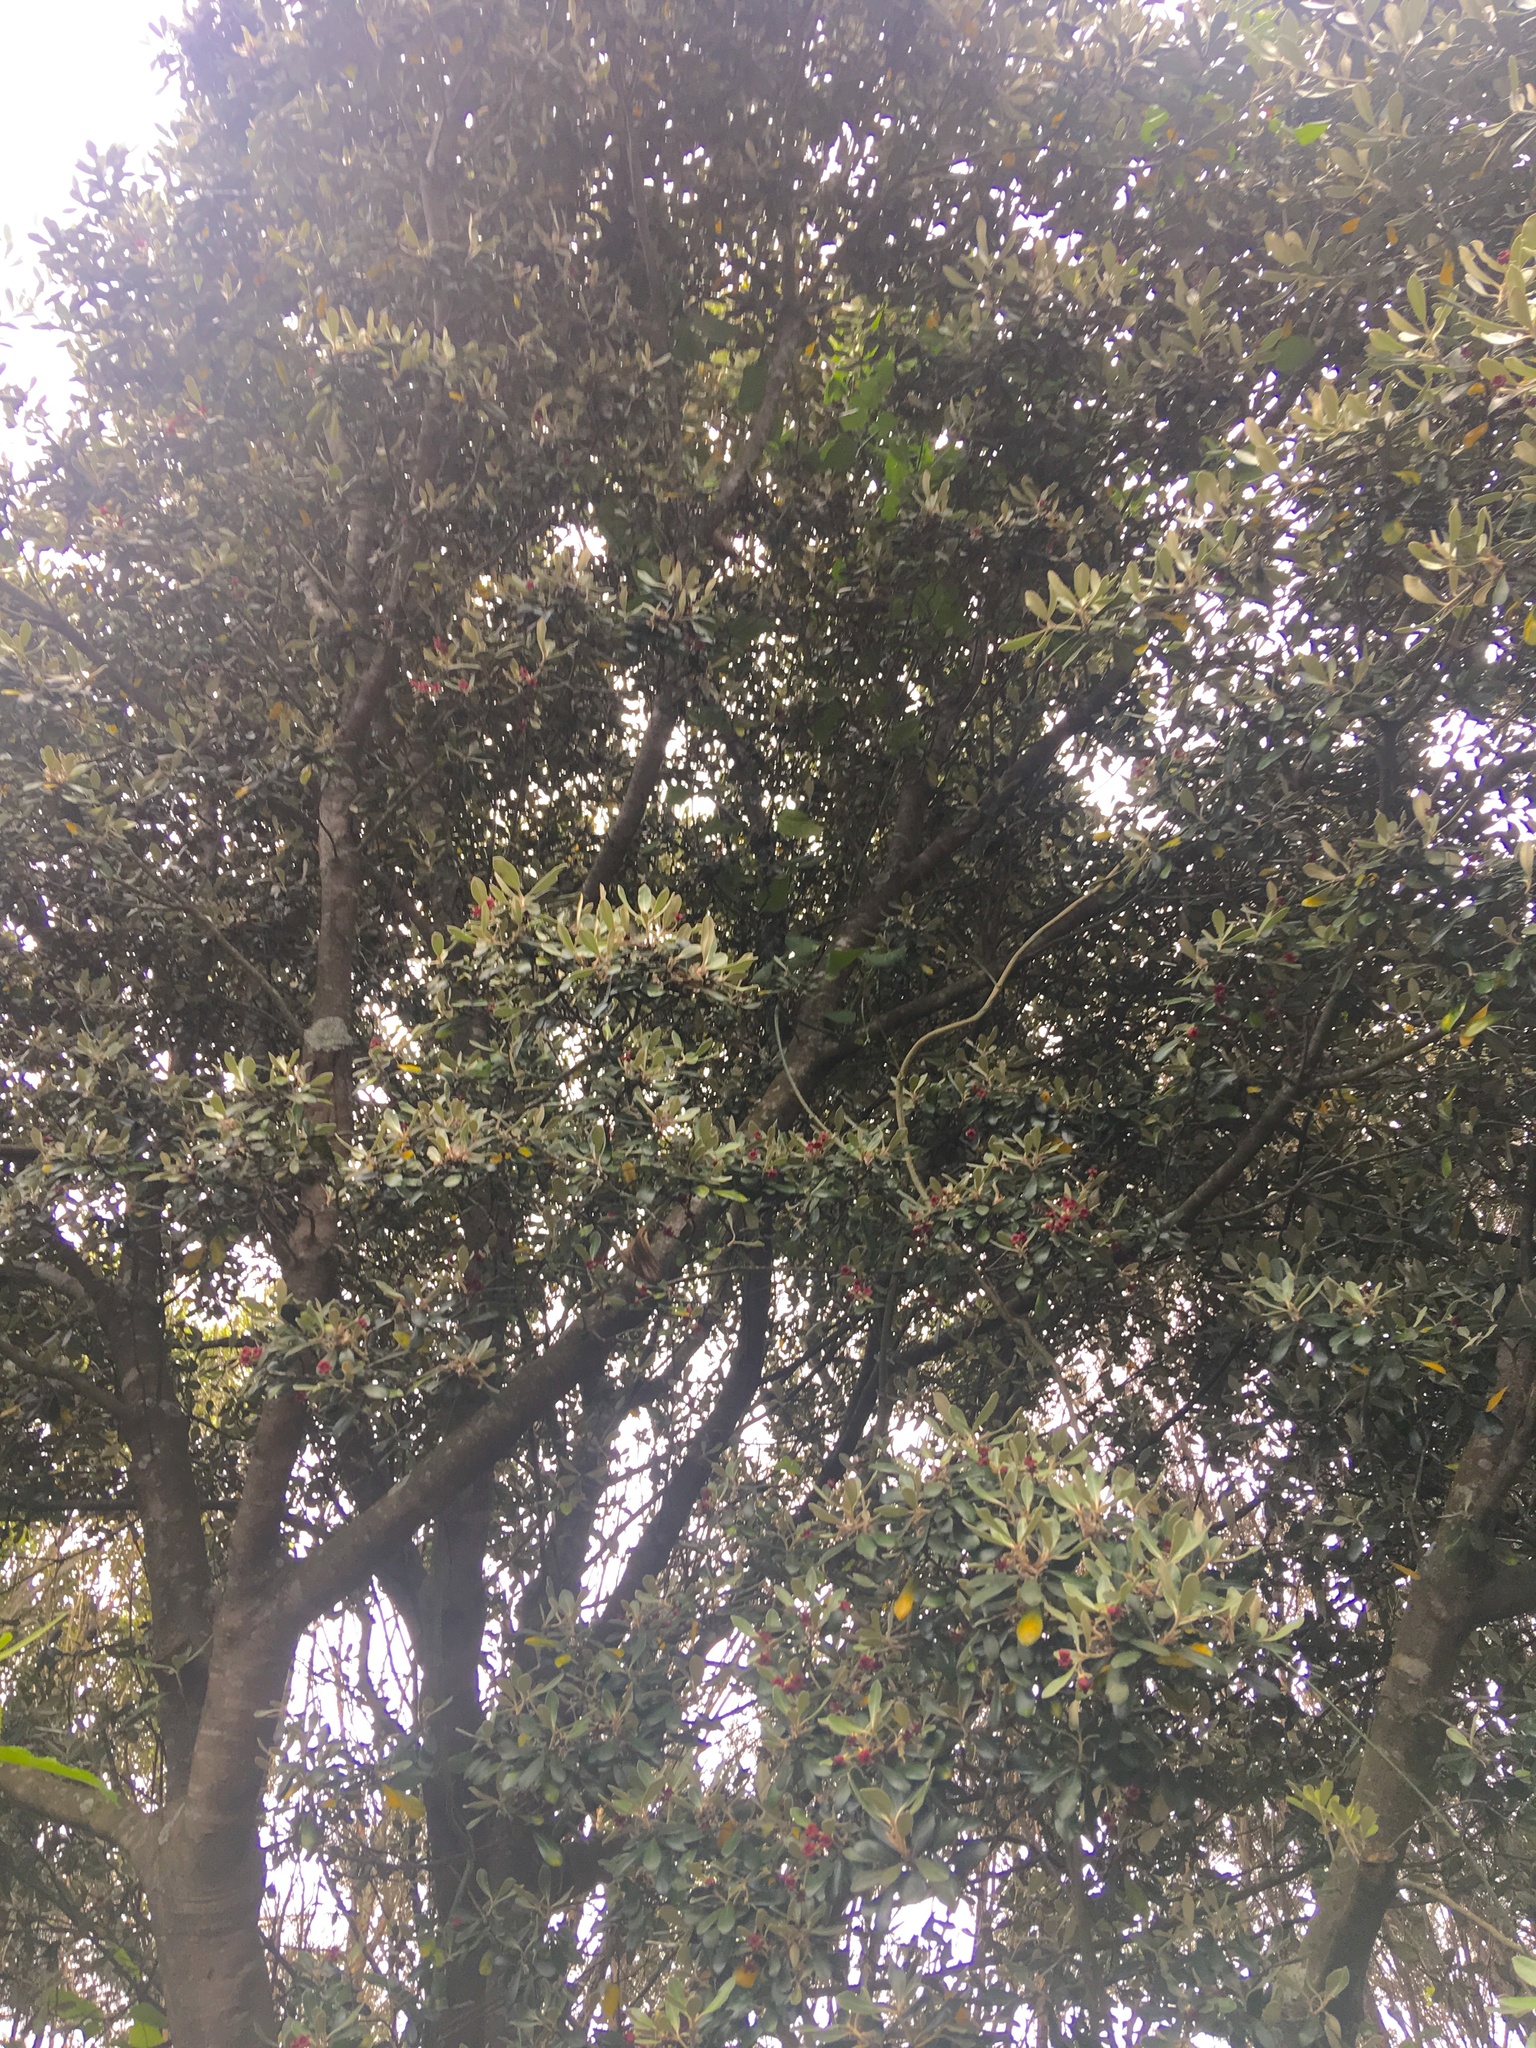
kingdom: Plantae
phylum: Tracheophyta
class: Magnoliopsida
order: Apiales
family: Pittosporaceae
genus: Pittosporum
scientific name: Pittosporum crassifolium
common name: Karo
